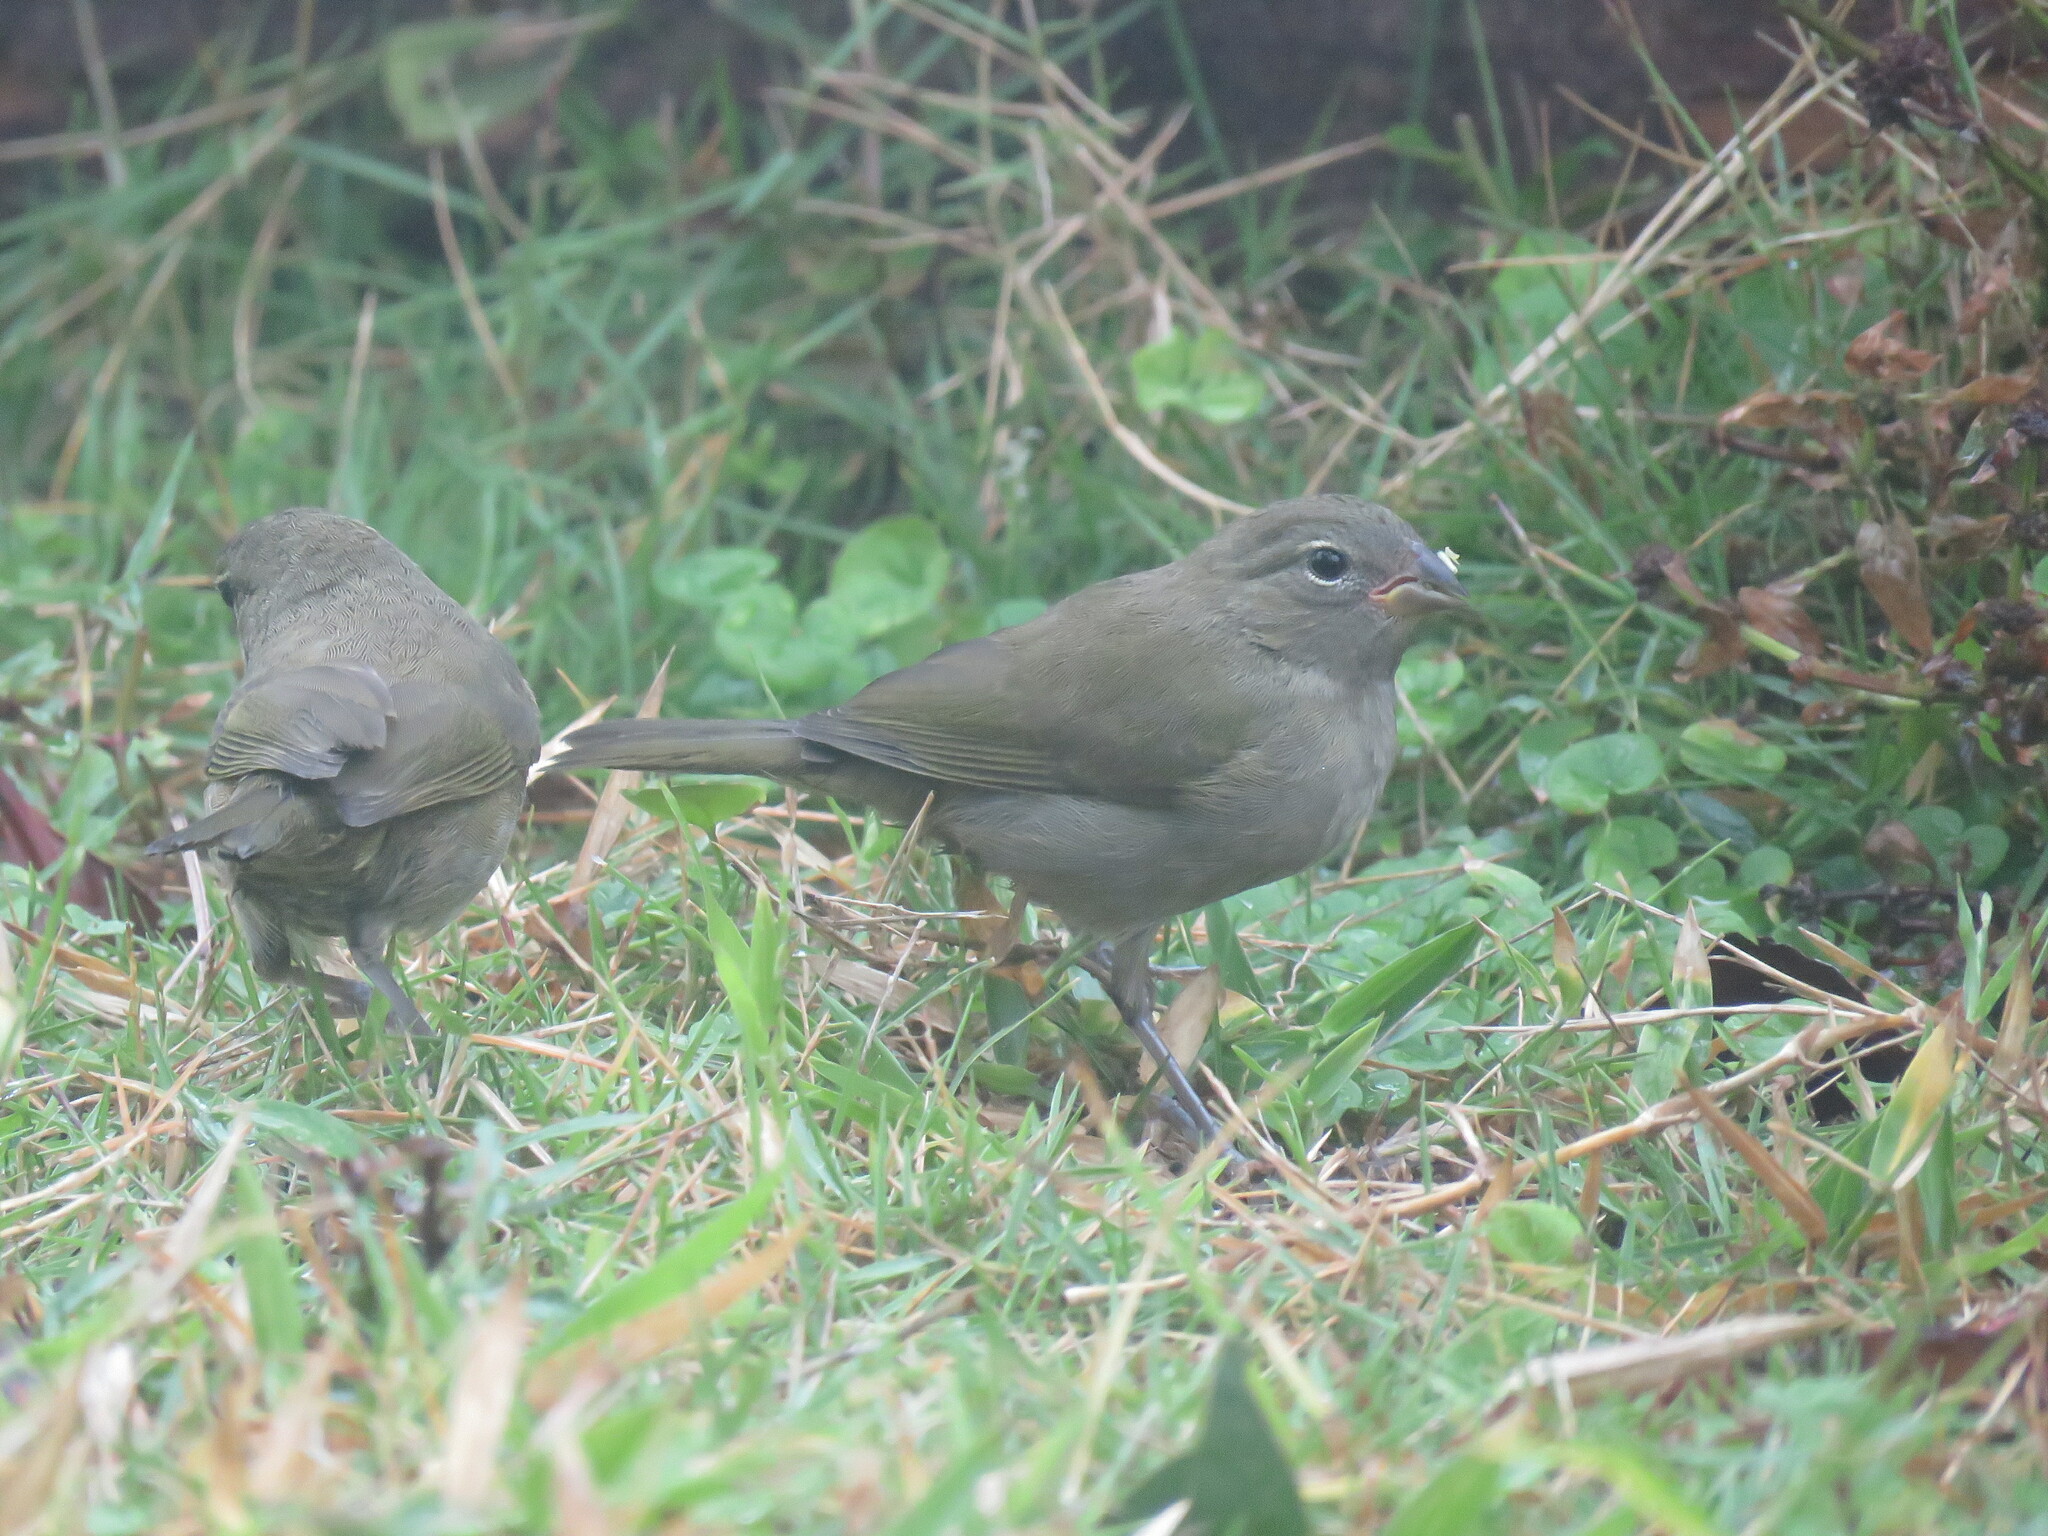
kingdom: Animalia
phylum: Chordata
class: Aves
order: Passeriformes
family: Thraupidae
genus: Tiaris
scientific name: Tiaris olivaceus
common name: Yellow-faced grassquit
